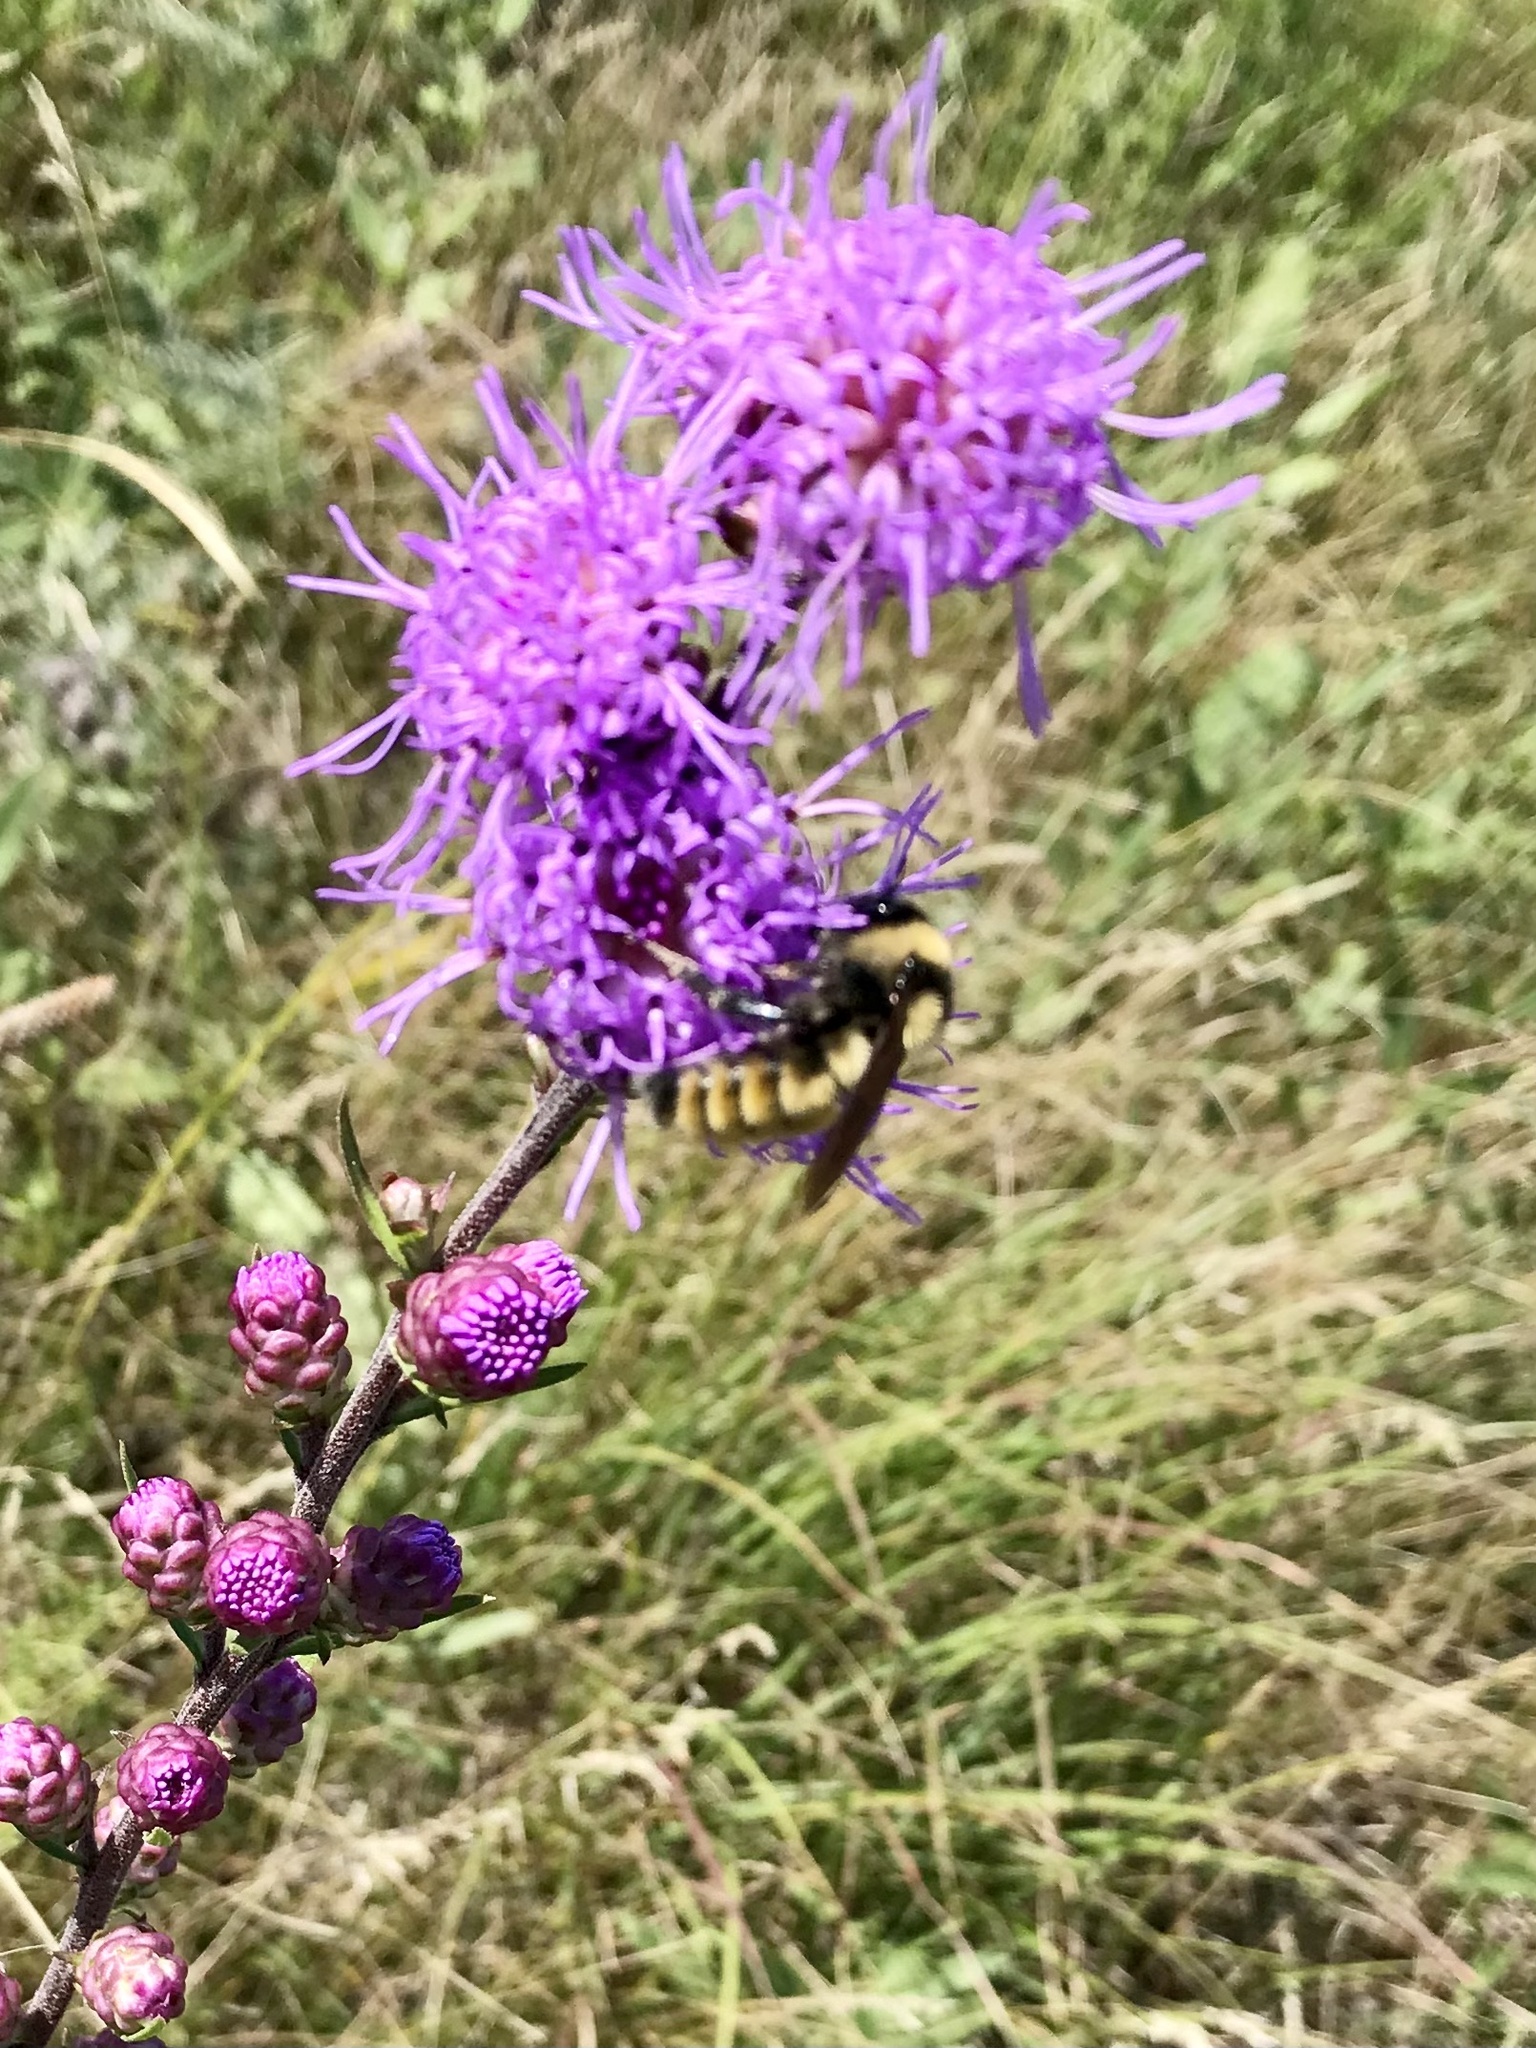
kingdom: Animalia
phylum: Arthropoda
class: Insecta
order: Hymenoptera
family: Apidae
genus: Bombus
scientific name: Bombus
